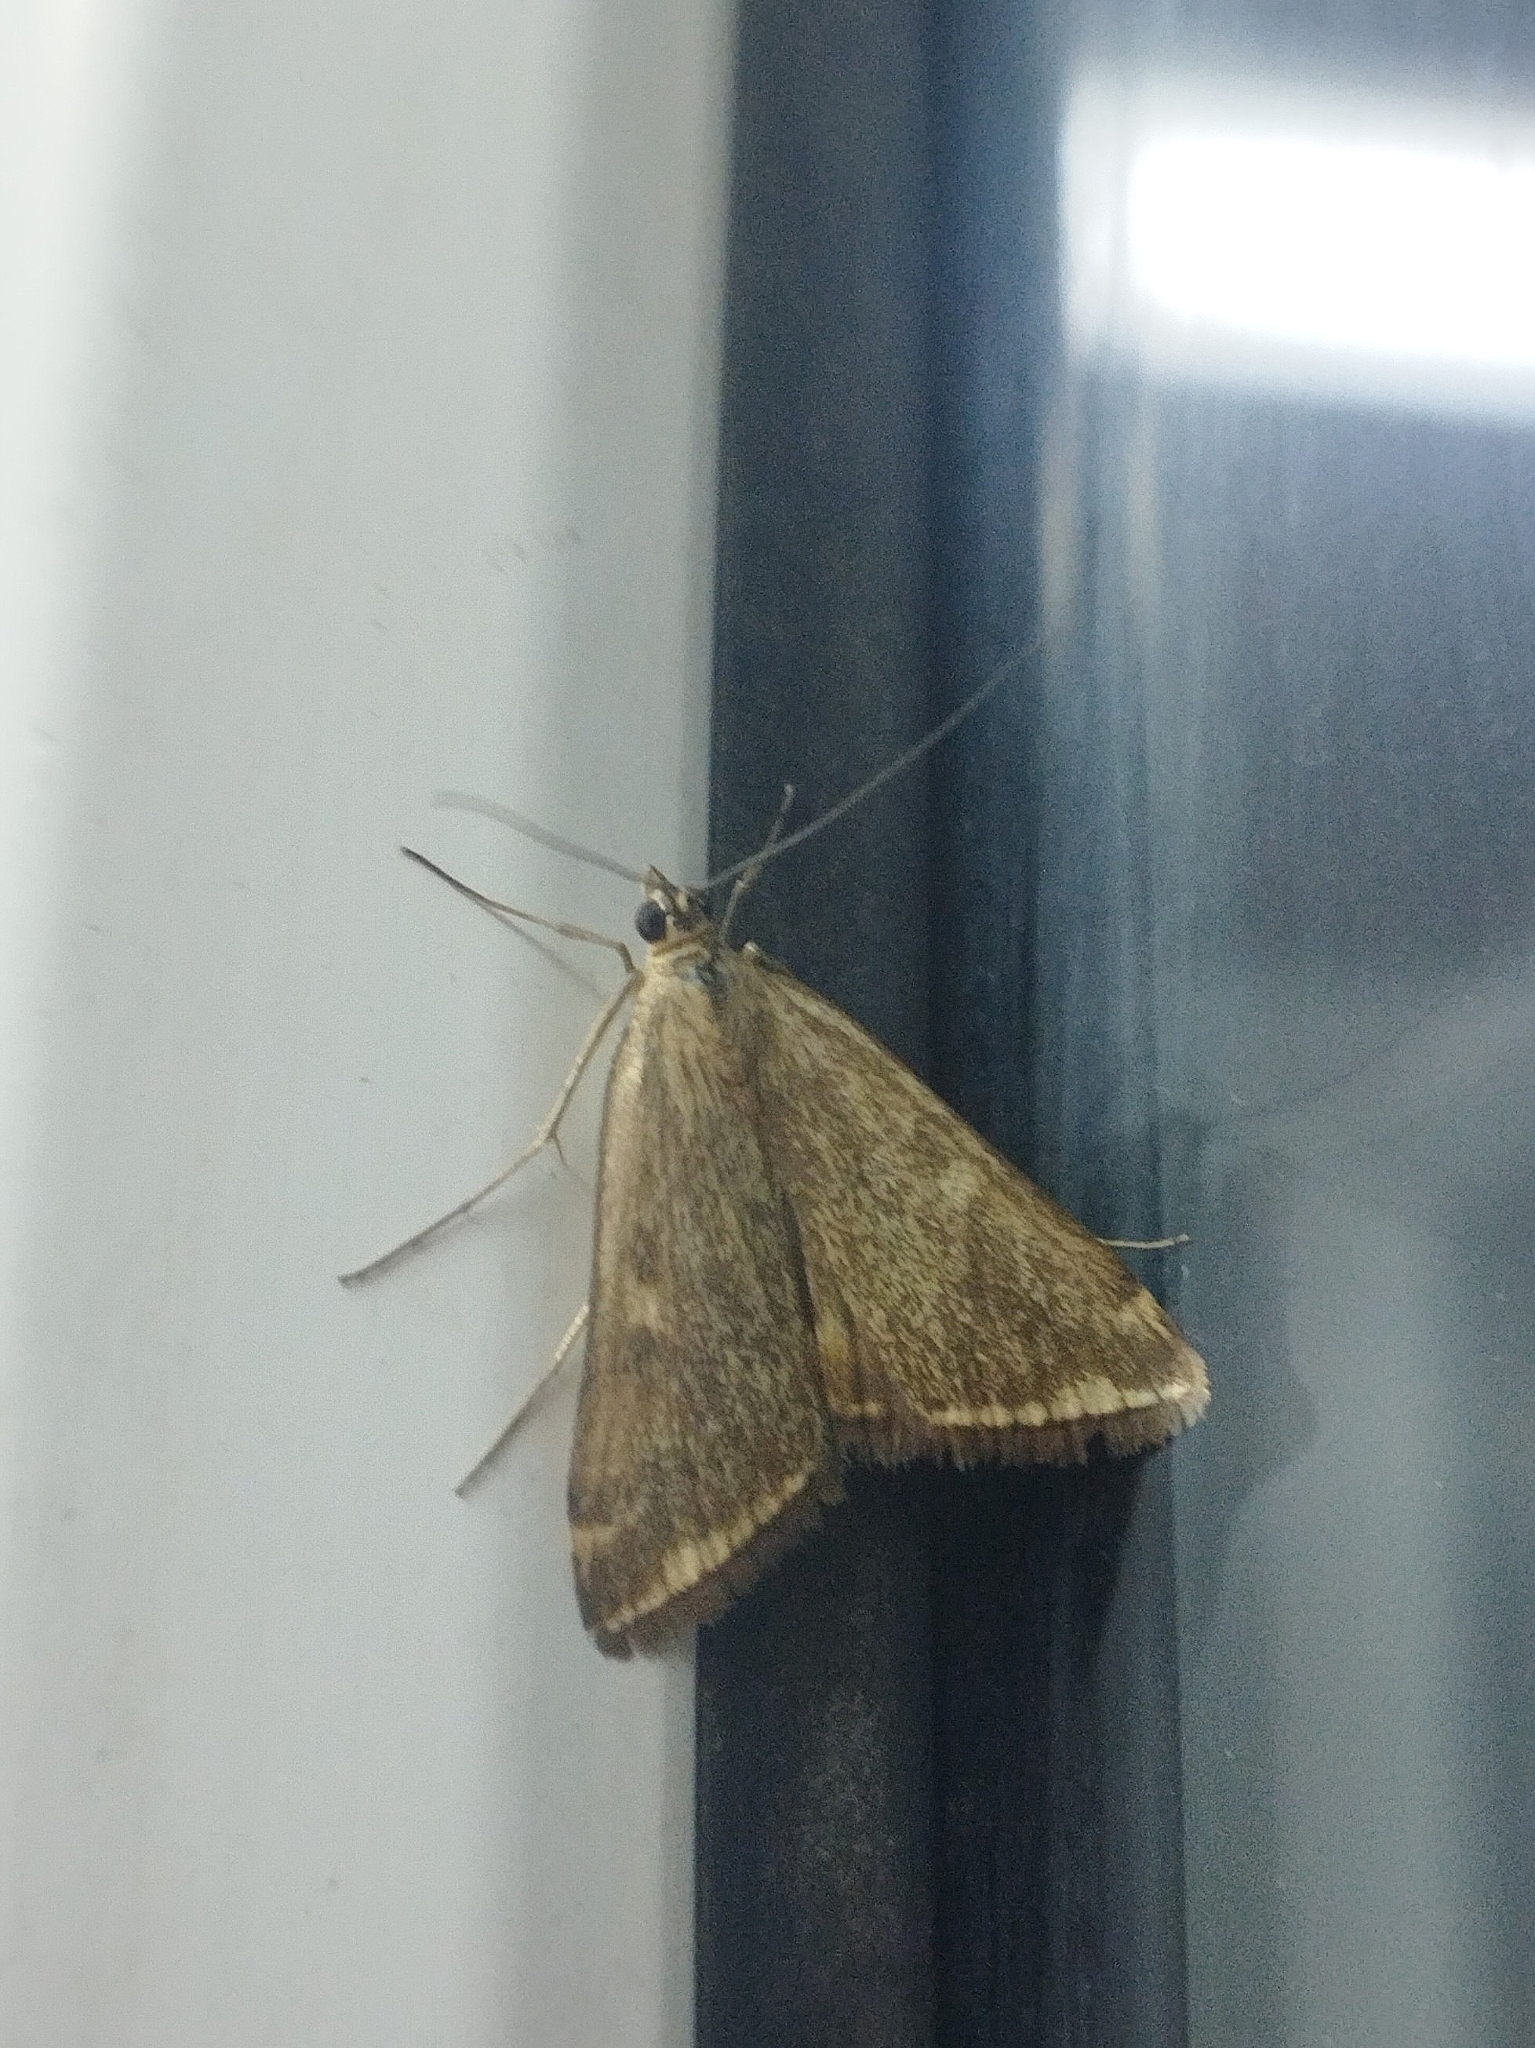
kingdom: Animalia
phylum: Arthropoda
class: Insecta
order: Lepidoptera
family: Crambidae
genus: Loxostege
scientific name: Loxostege sticticalis
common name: Crambid moth
